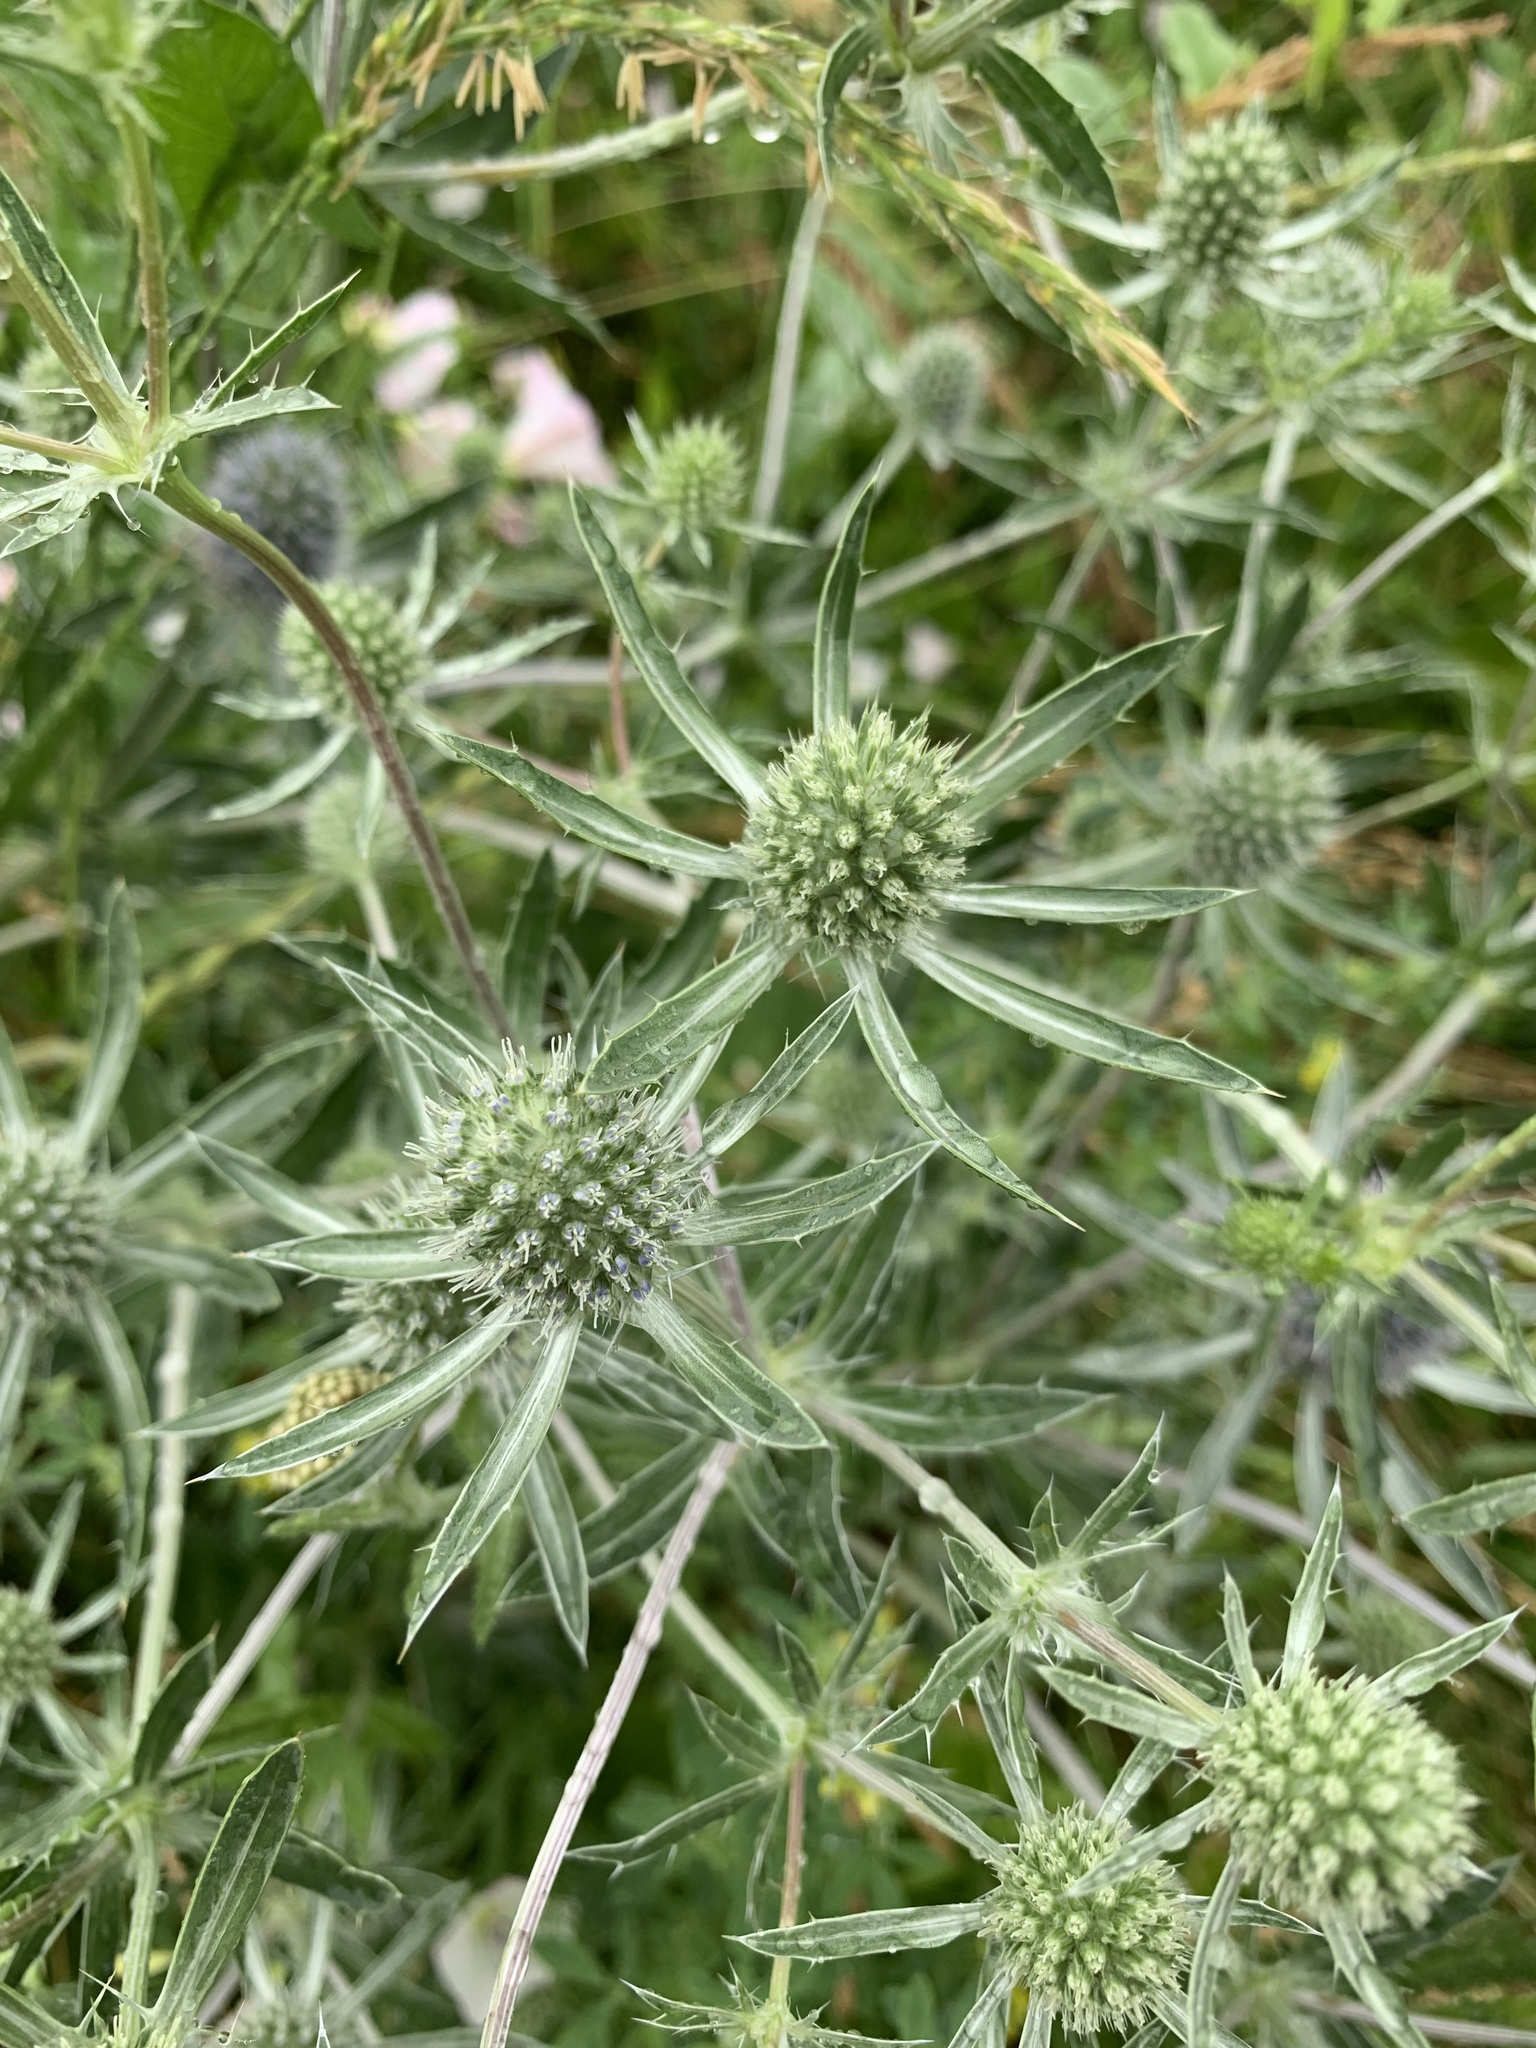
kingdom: Plantae
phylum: Tracheophyta
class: Magnoliopsida
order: Apiales
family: Apiaceae
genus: Eryngium
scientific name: Eryngium planum
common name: Blue eryngo
